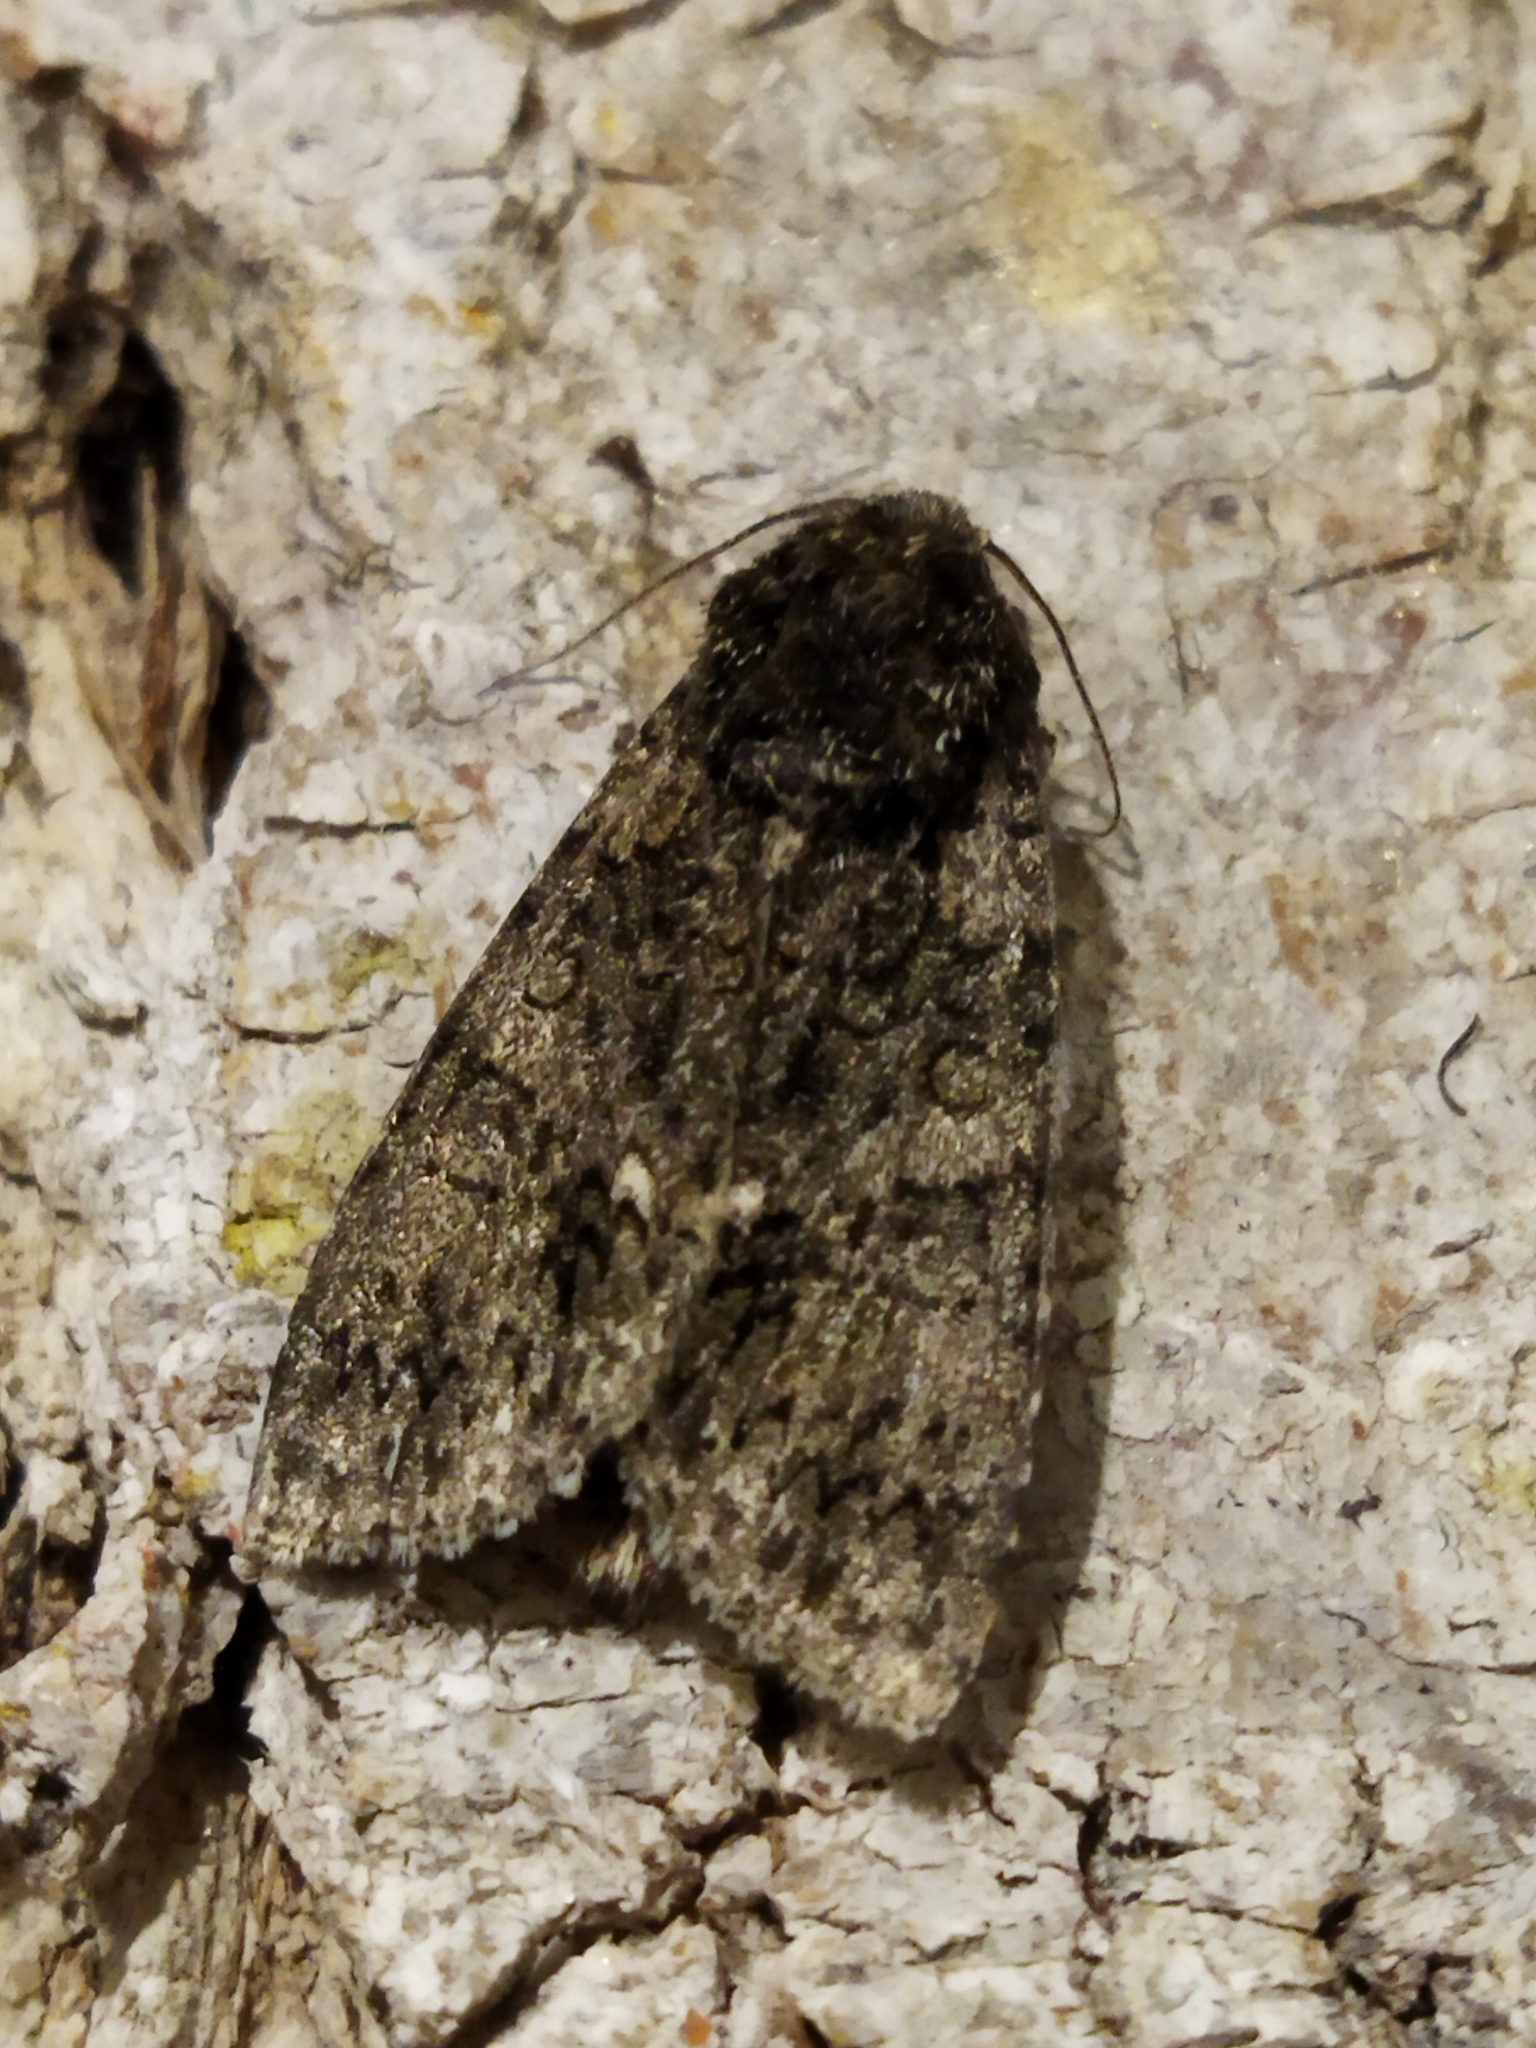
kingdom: Animalia
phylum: Arthropoda
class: Insecta
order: Lepidoptera
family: Noctuidae
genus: Acronicta
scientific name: Acronicta rumicis
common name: Knot grass
